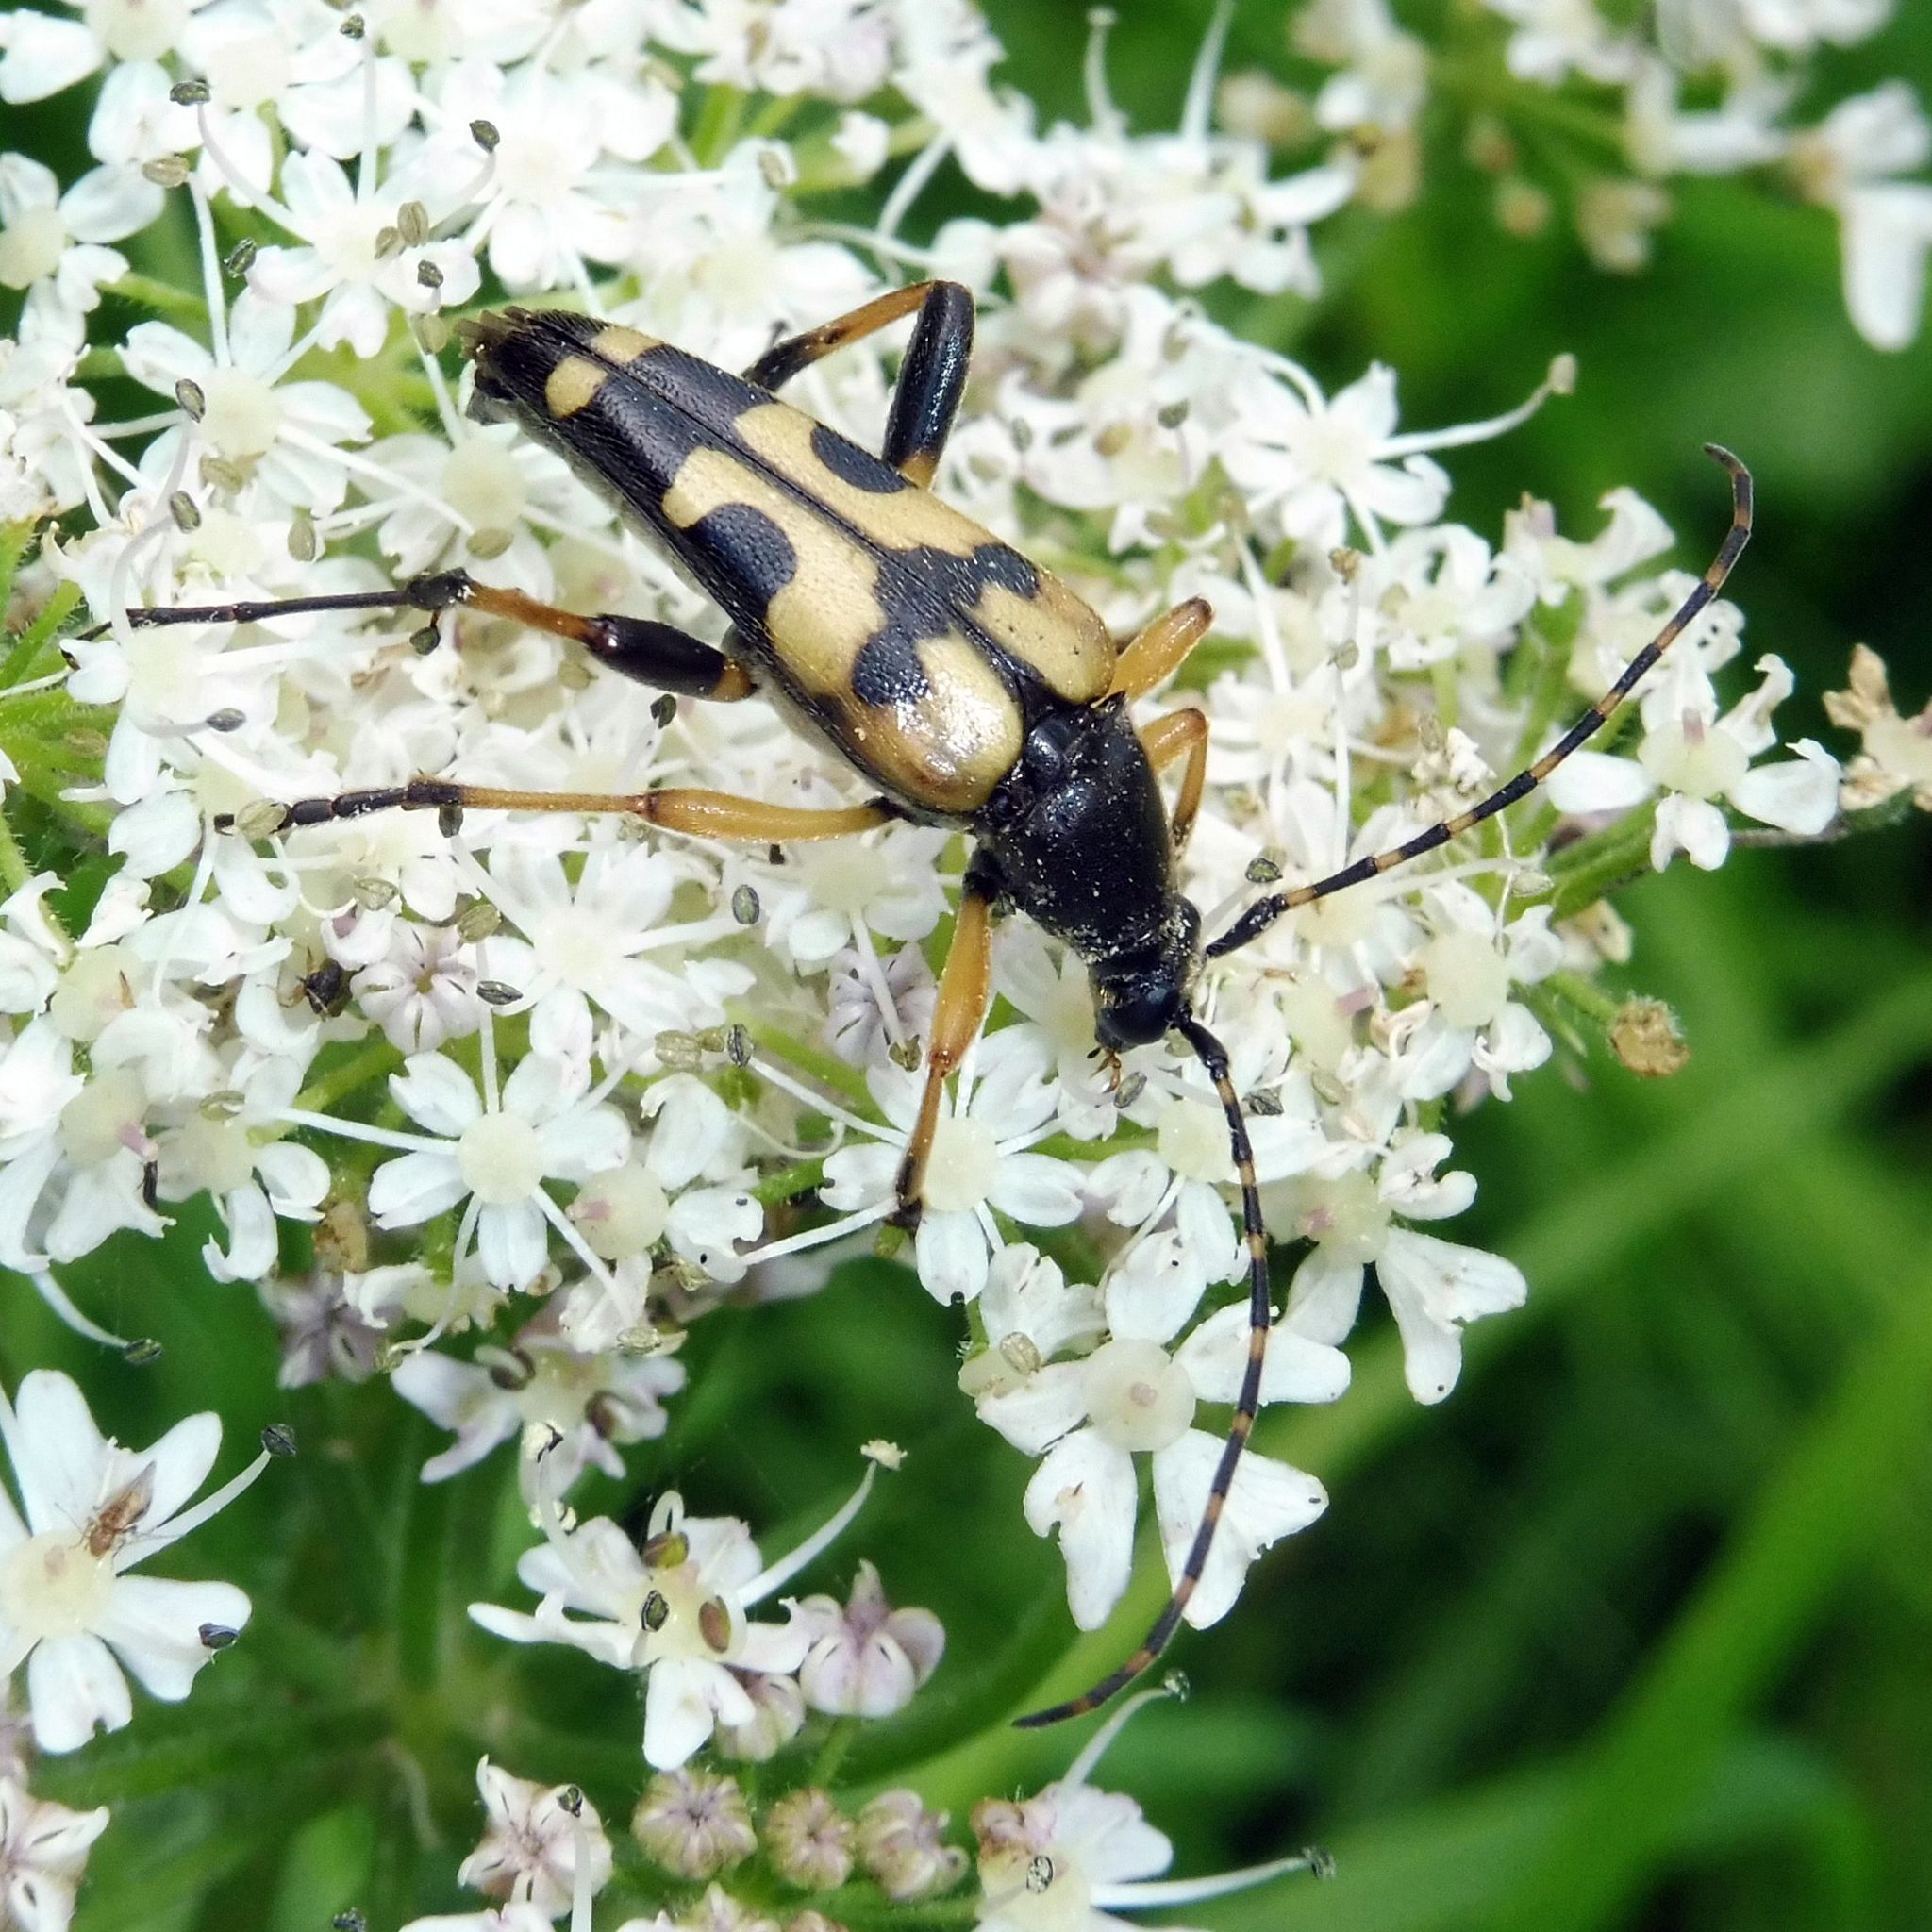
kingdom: Animalia
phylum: Arthropoda
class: Insecta
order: Coleoptera
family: Cerambycidae
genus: Rutpela
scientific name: Rutpela maculata
